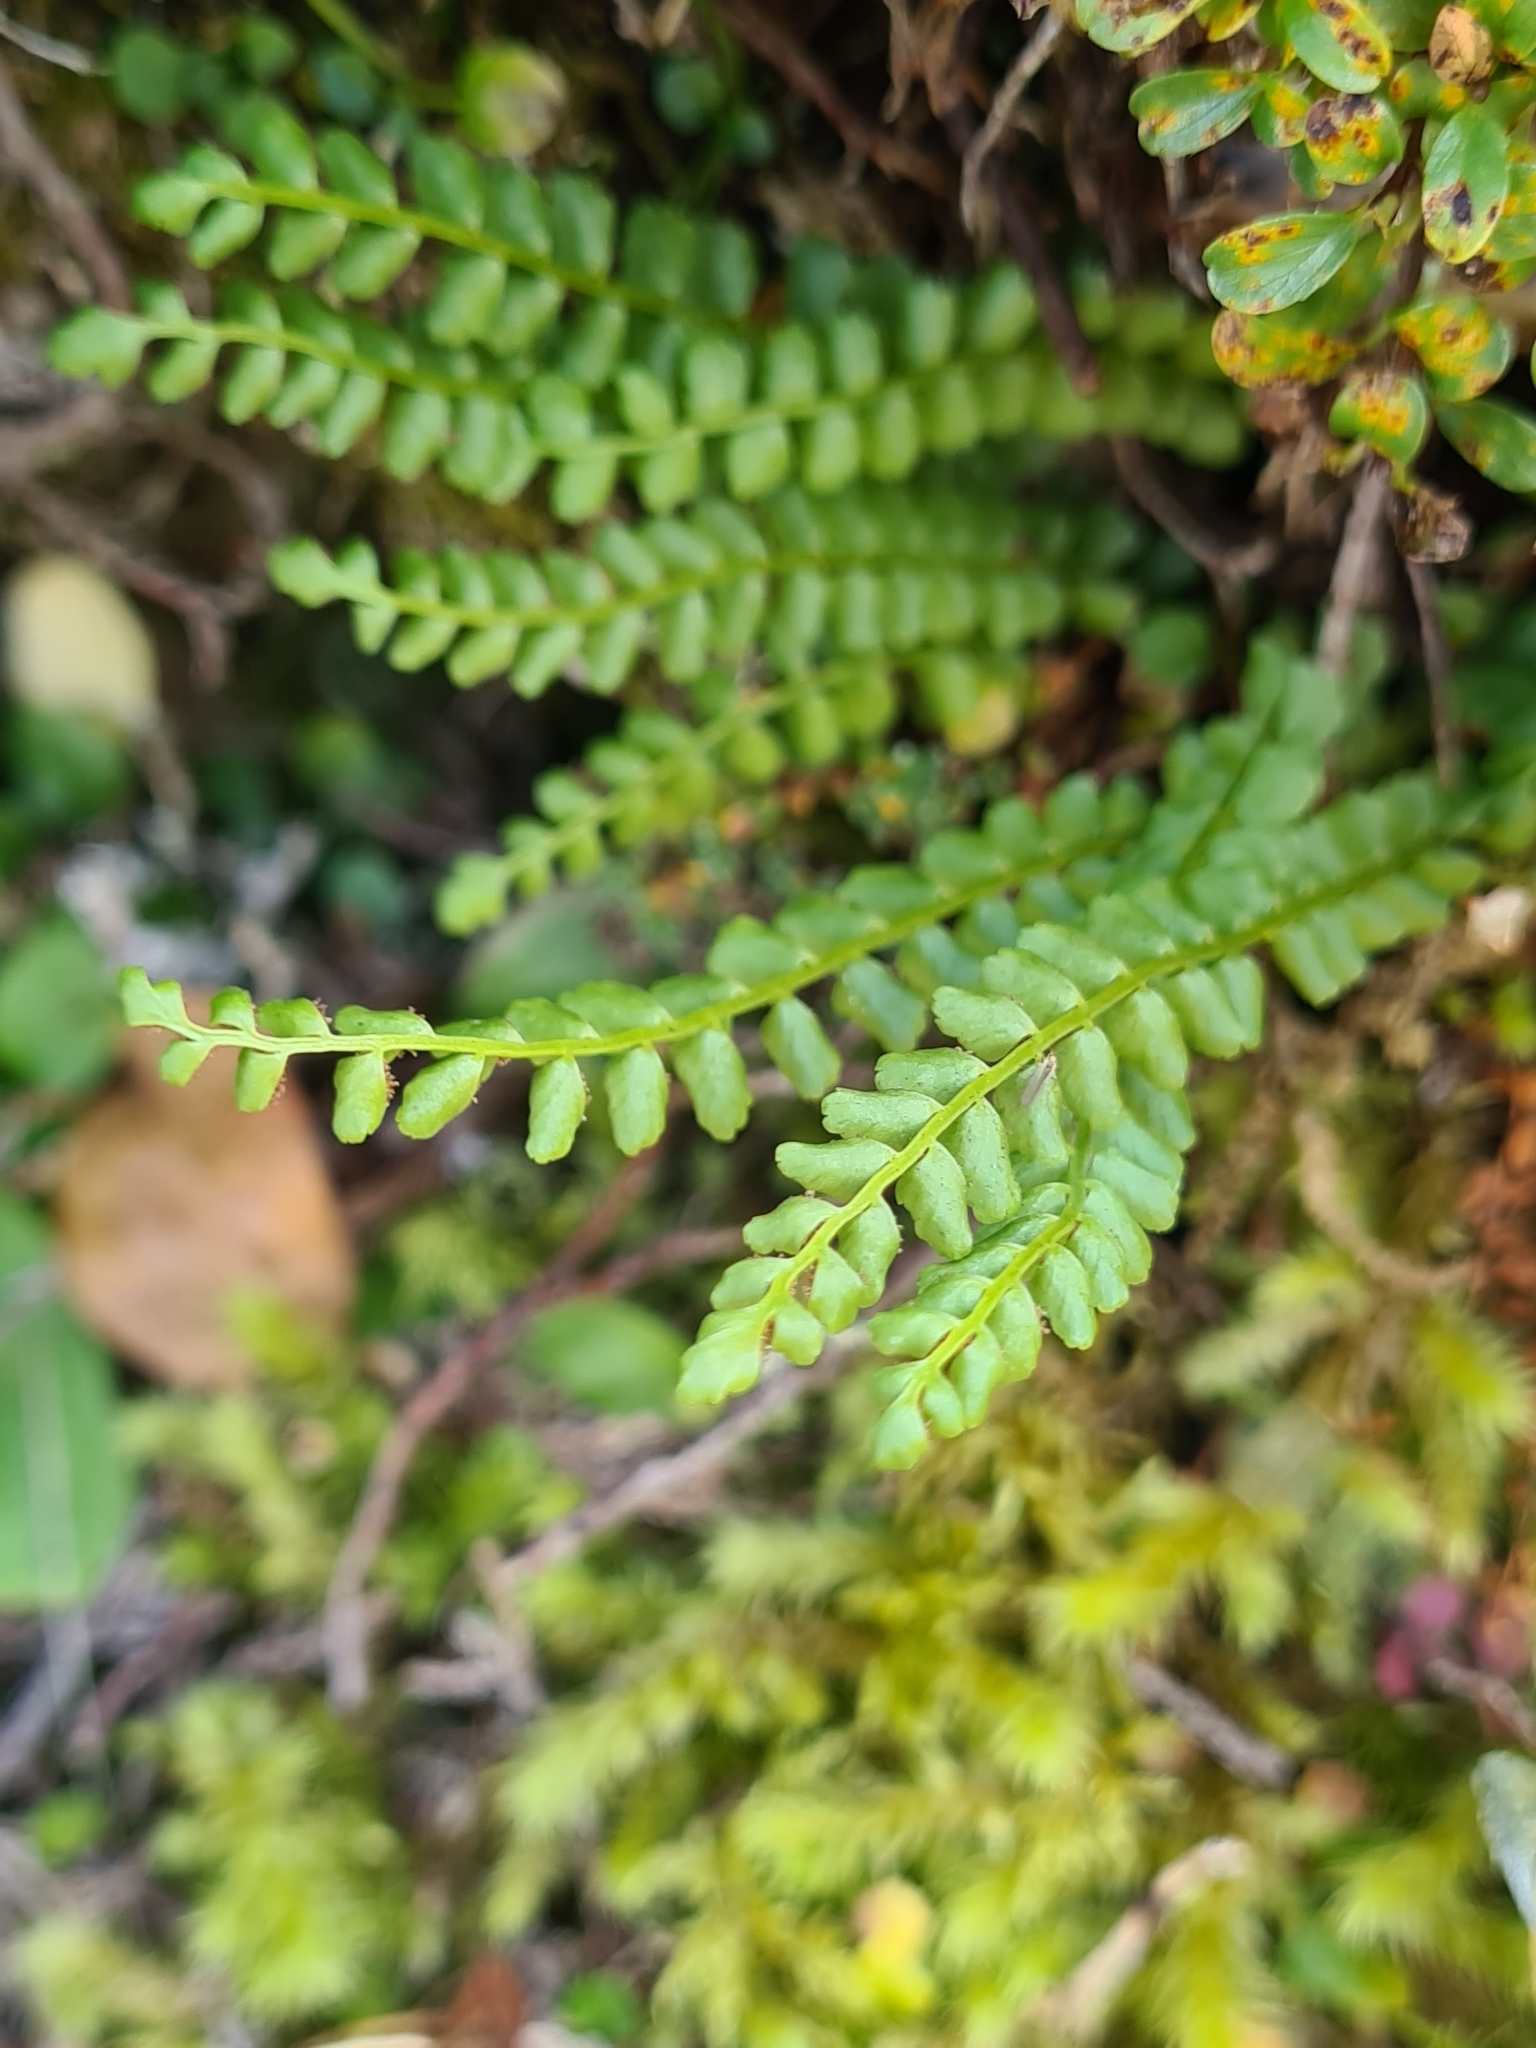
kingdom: Plantae
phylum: Tracheophyta
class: Polypodiopsida
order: Polypodiales
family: Aspleniaceae
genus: Asplenium
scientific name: Asplenium viride
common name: Green spleenwort
